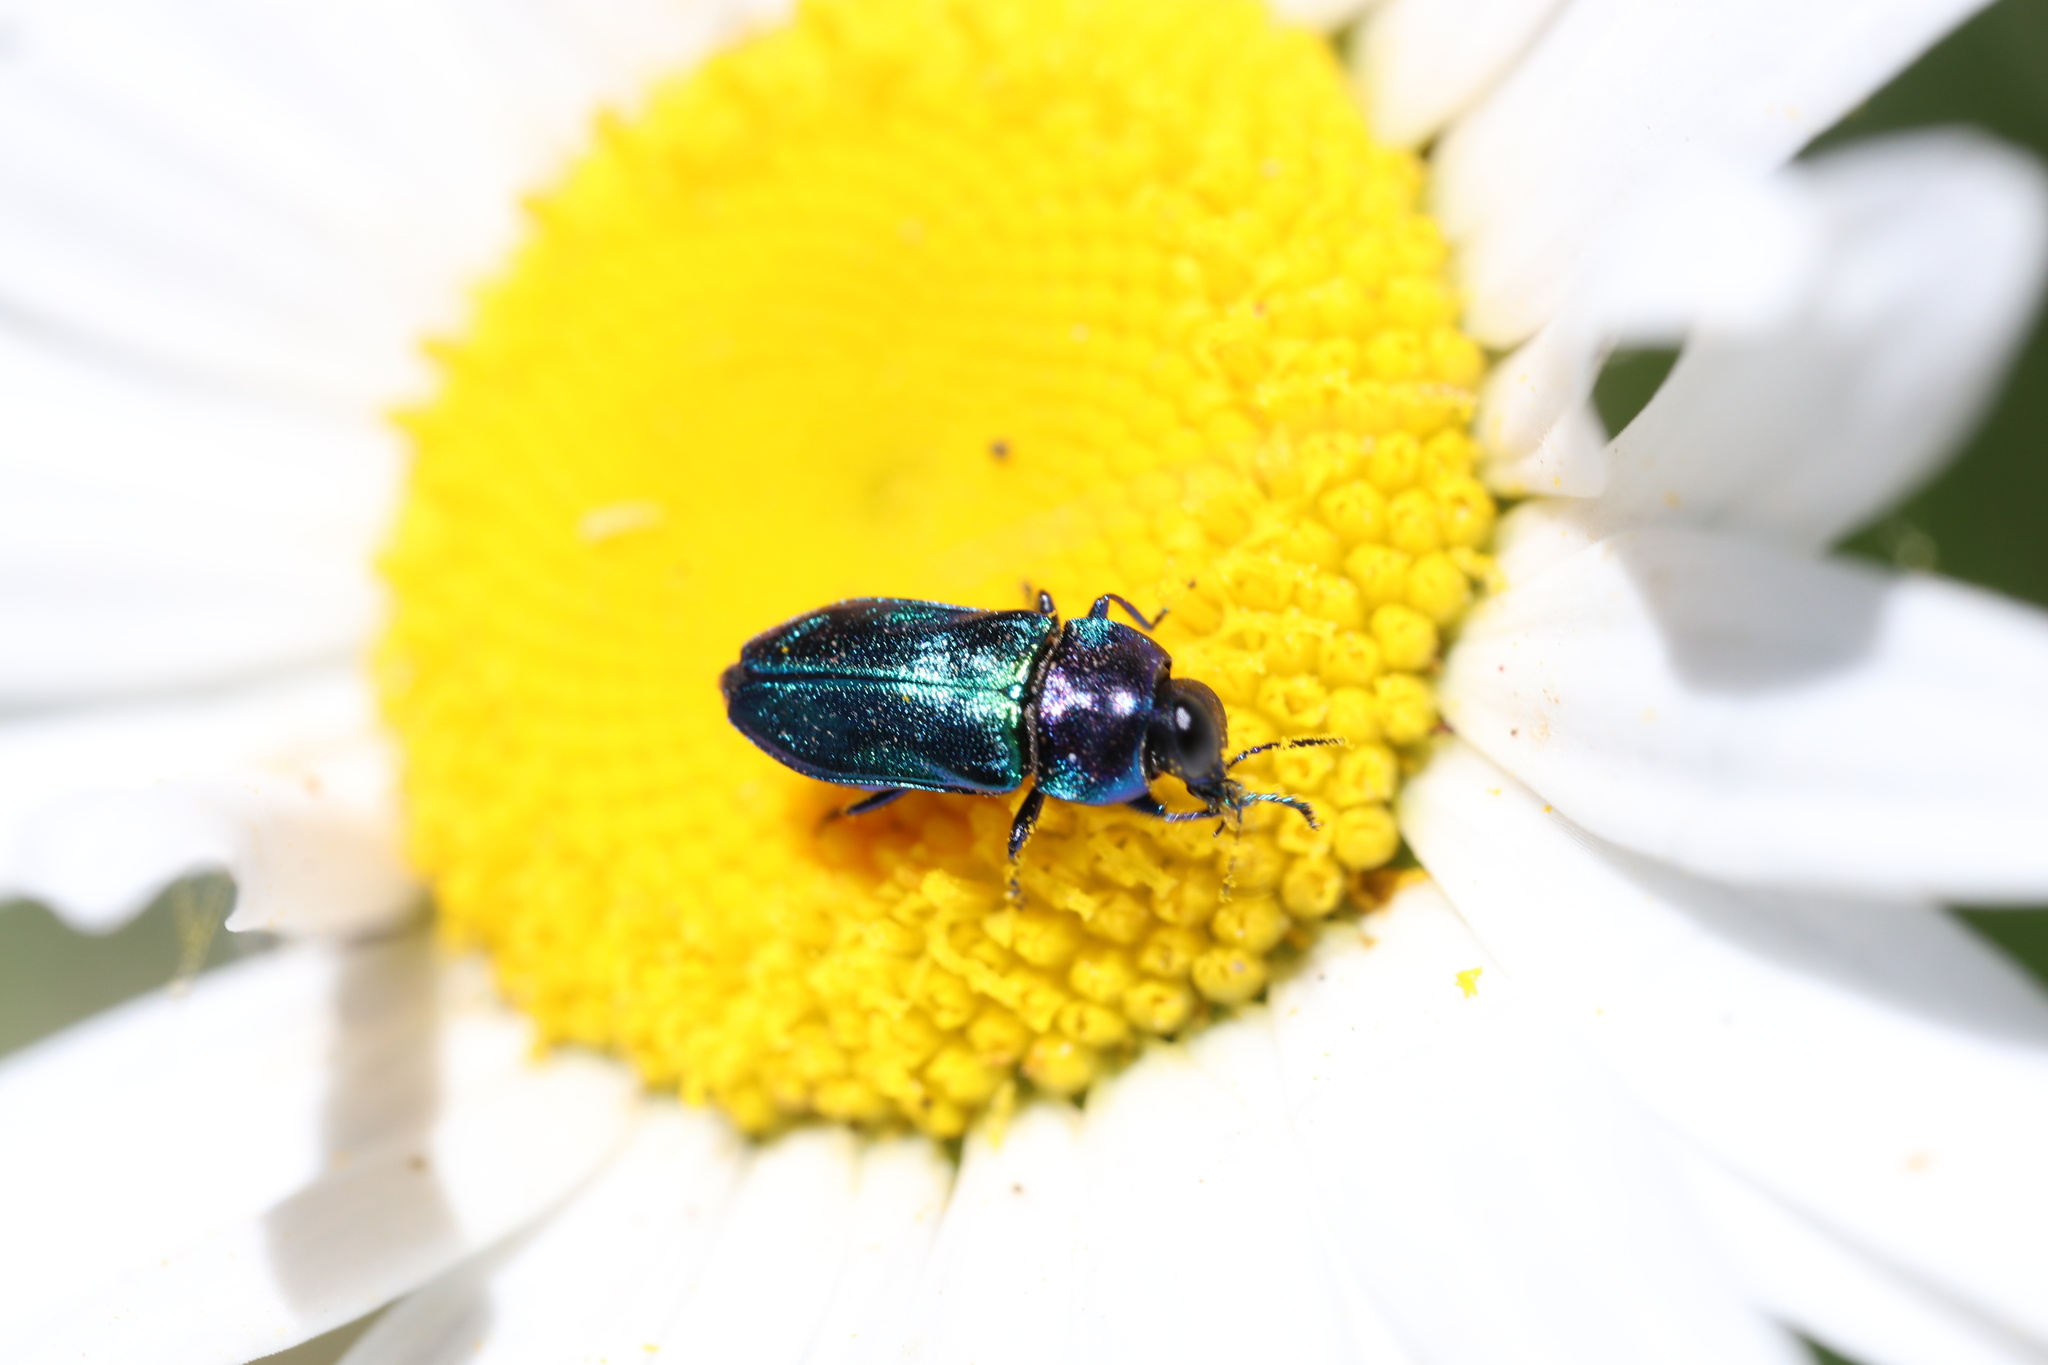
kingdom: Animalia
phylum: Arthropoda
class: Insecta
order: Coleoptera
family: Buprestidae
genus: Bilyaxia
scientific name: Bilyaxia concinna
